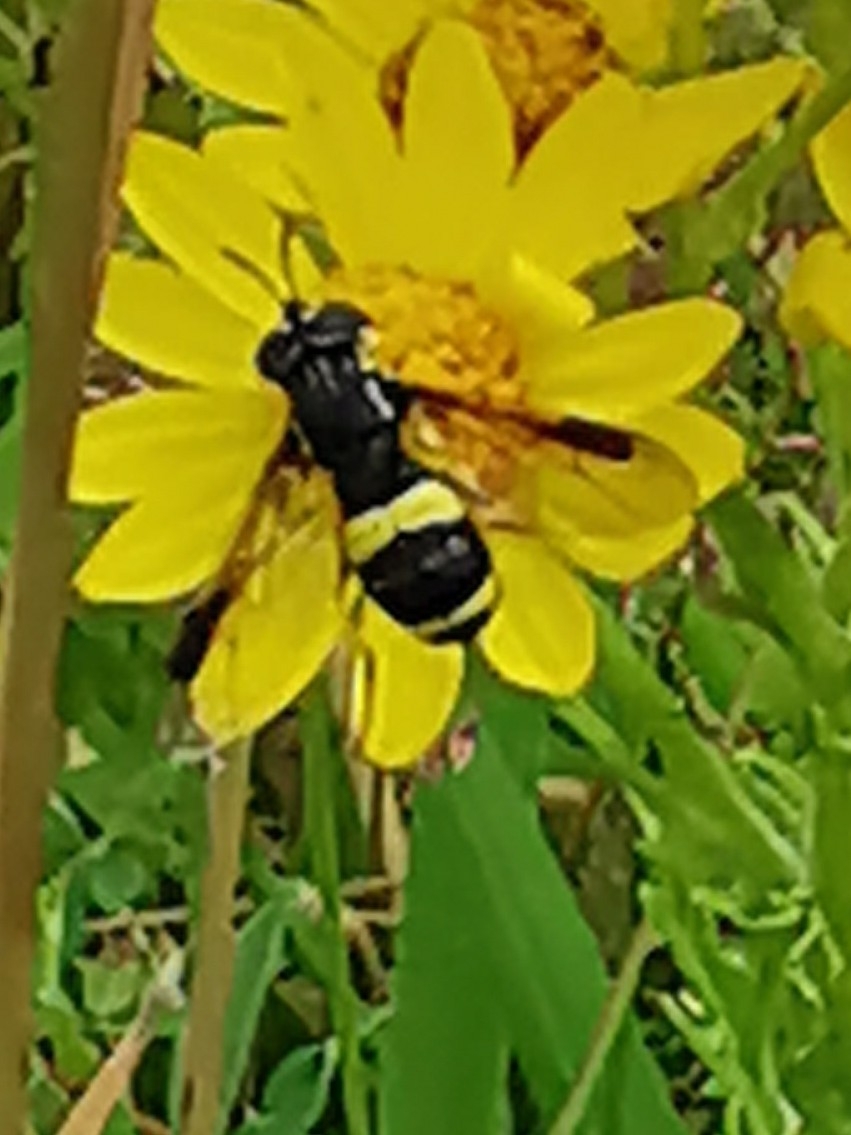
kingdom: Animalia
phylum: Arthropoda
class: Insecta
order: Diptera
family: Syrphidae
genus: Chrysotoxum
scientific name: Chrysotoxum bicincta
